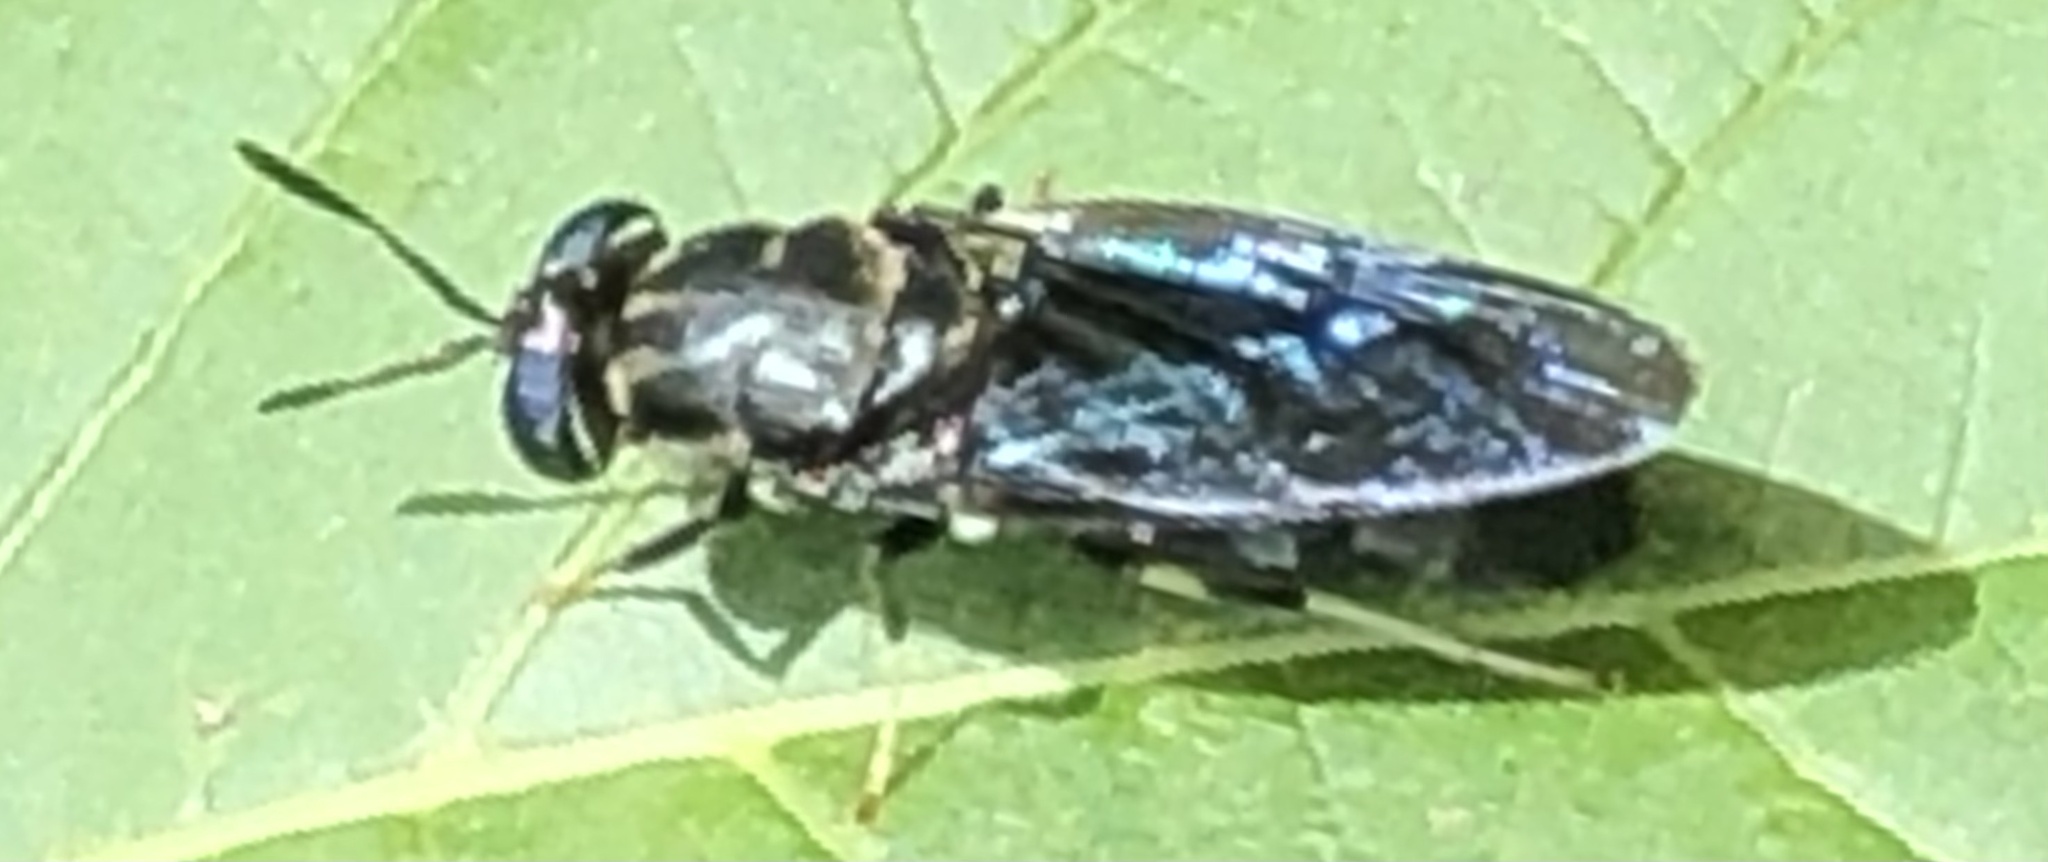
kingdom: Animalia
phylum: Arthropoda
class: Insecta
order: Diptera
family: Stratiomyidae
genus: Hermetia
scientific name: Hermetia illucens
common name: Black soldier fly
